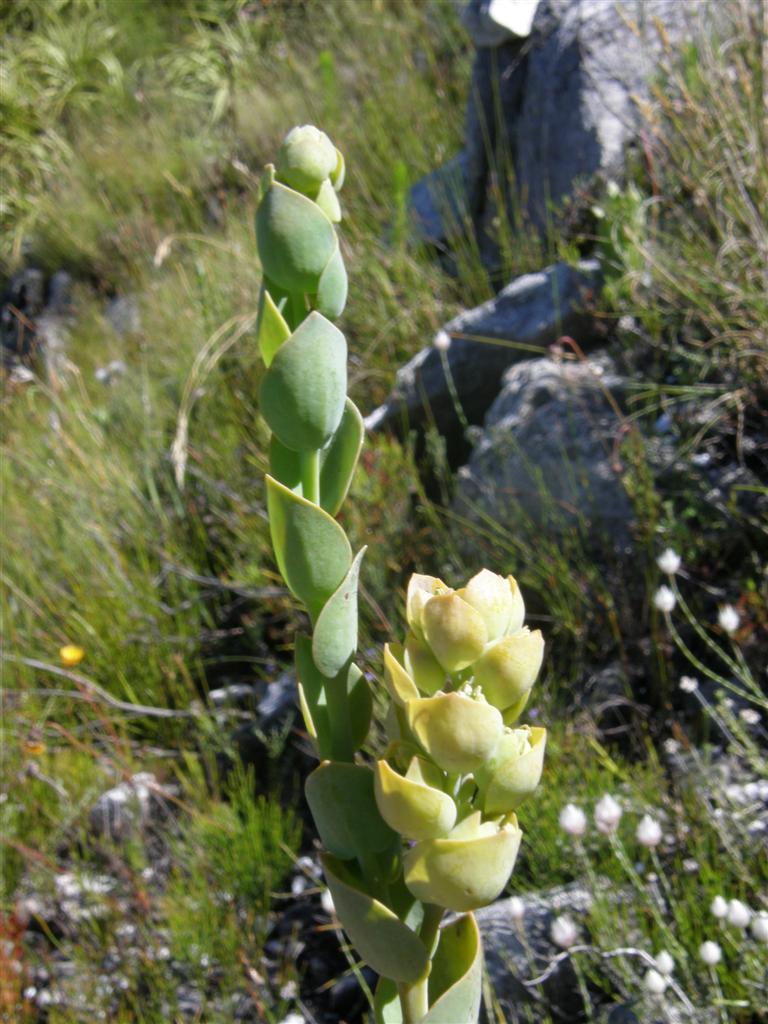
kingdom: Plantae
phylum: Tracheophyta
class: Magnoliopsida
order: Santalales
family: Thesiaceae
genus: Thesium
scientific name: Thesium euphorbioides
